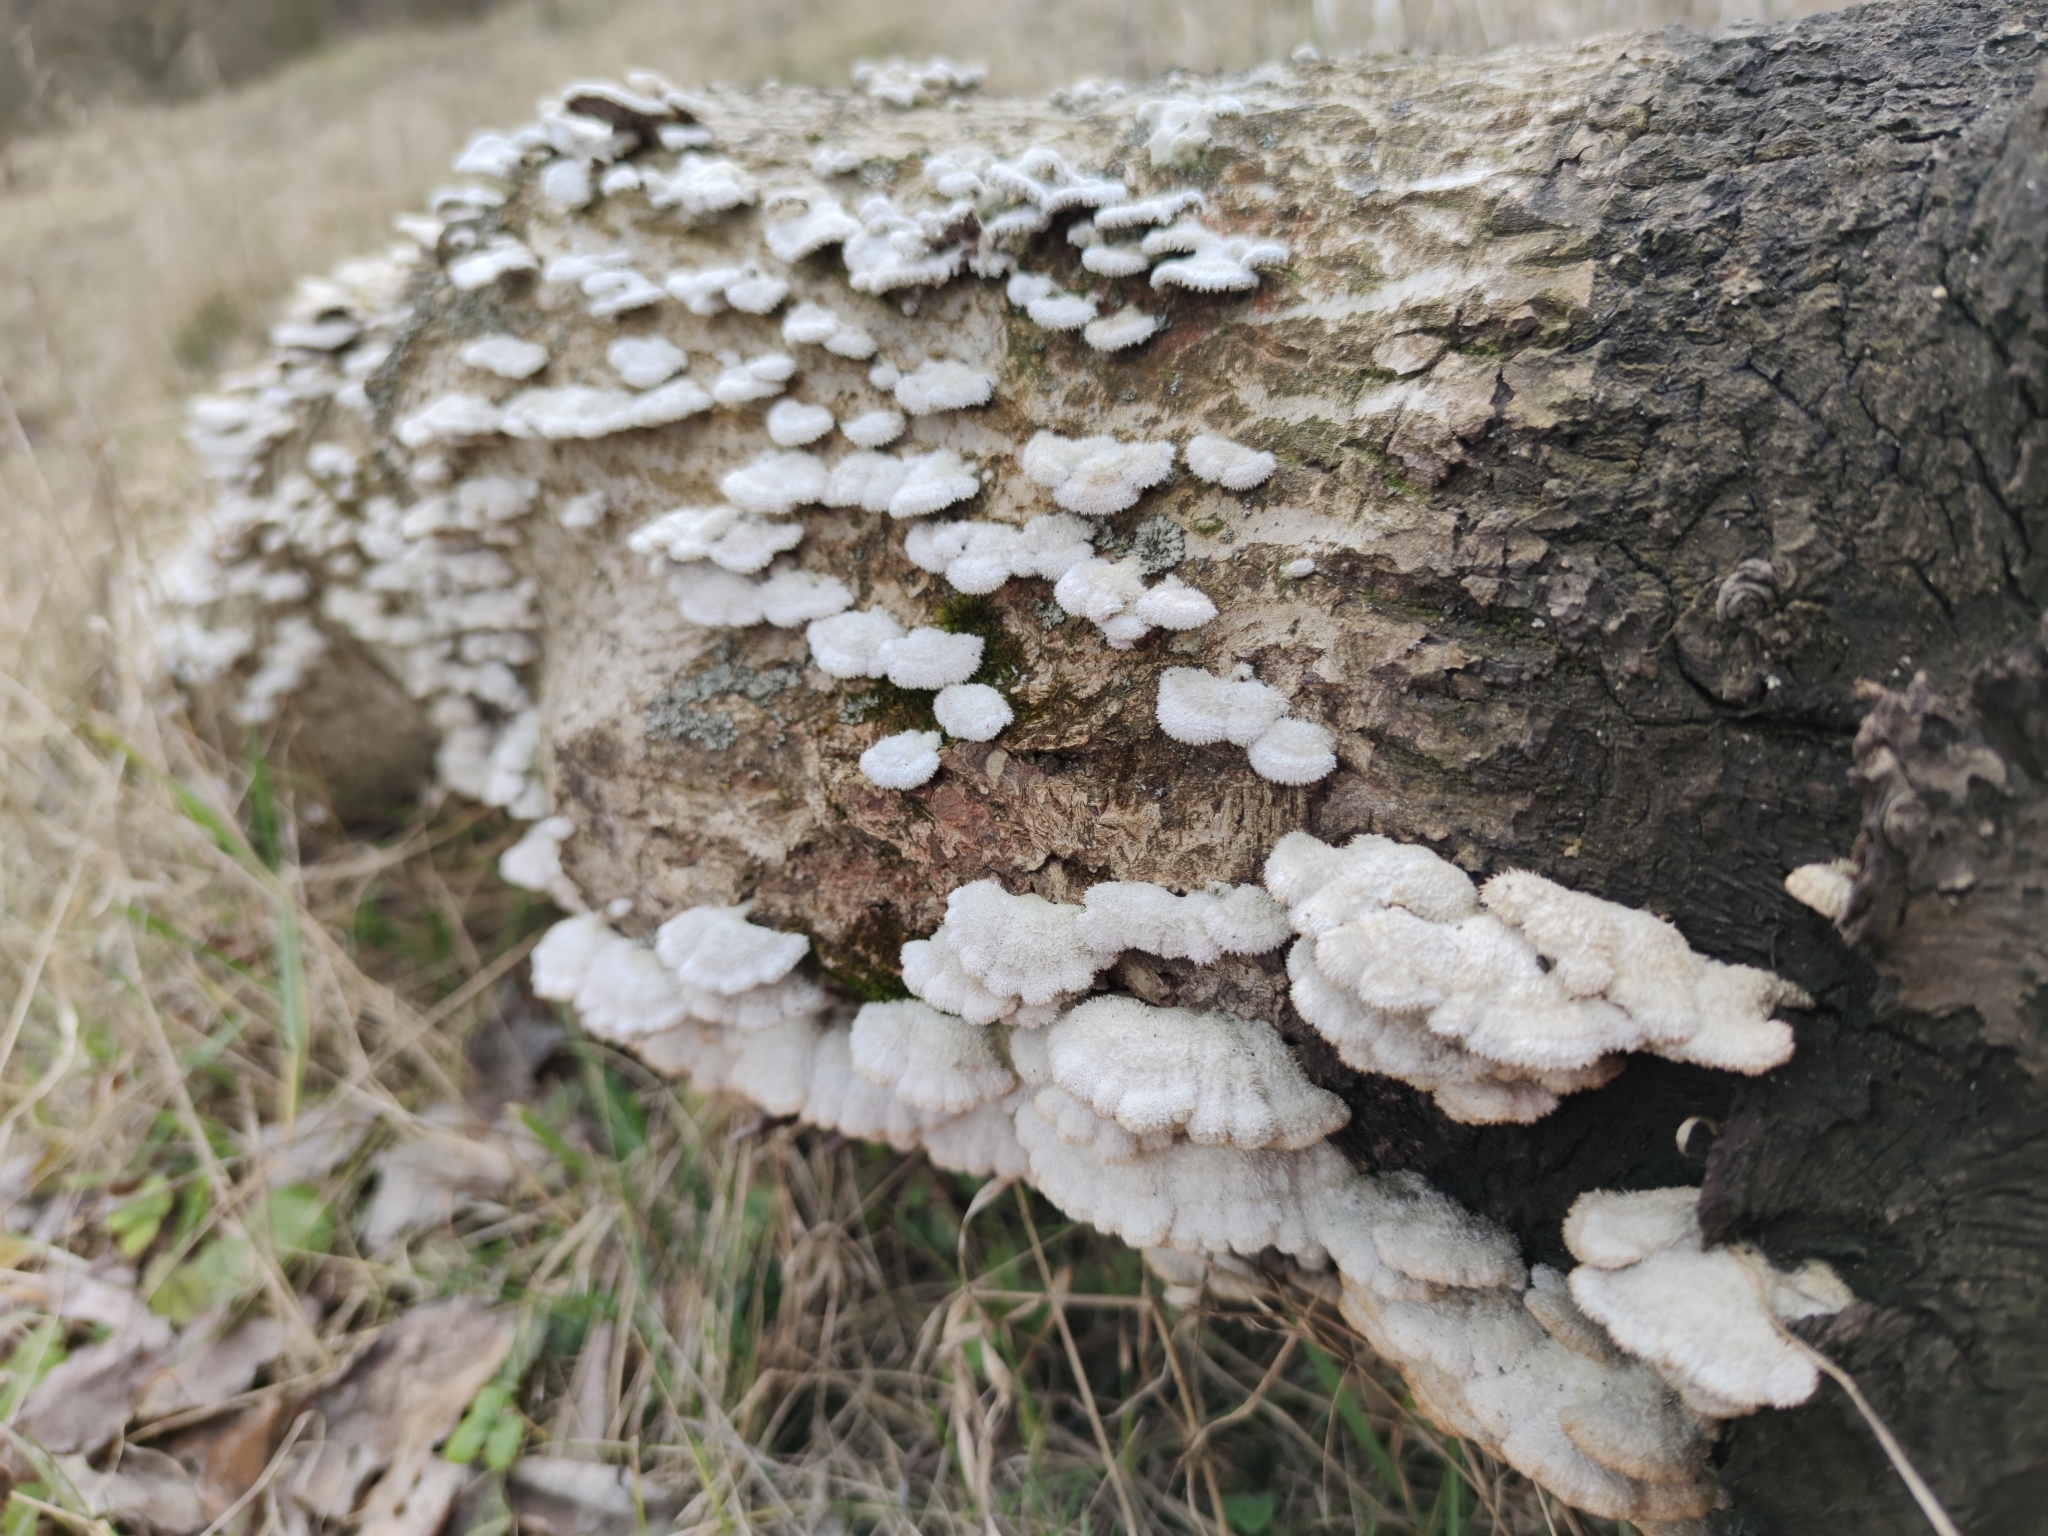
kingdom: Fungi
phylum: Basidiomycota
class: Agaricomycetes
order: Agaricales
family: Schizophyllaceae
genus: Schizophyllum
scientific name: Schizophyllum commune
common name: Common porecrust
